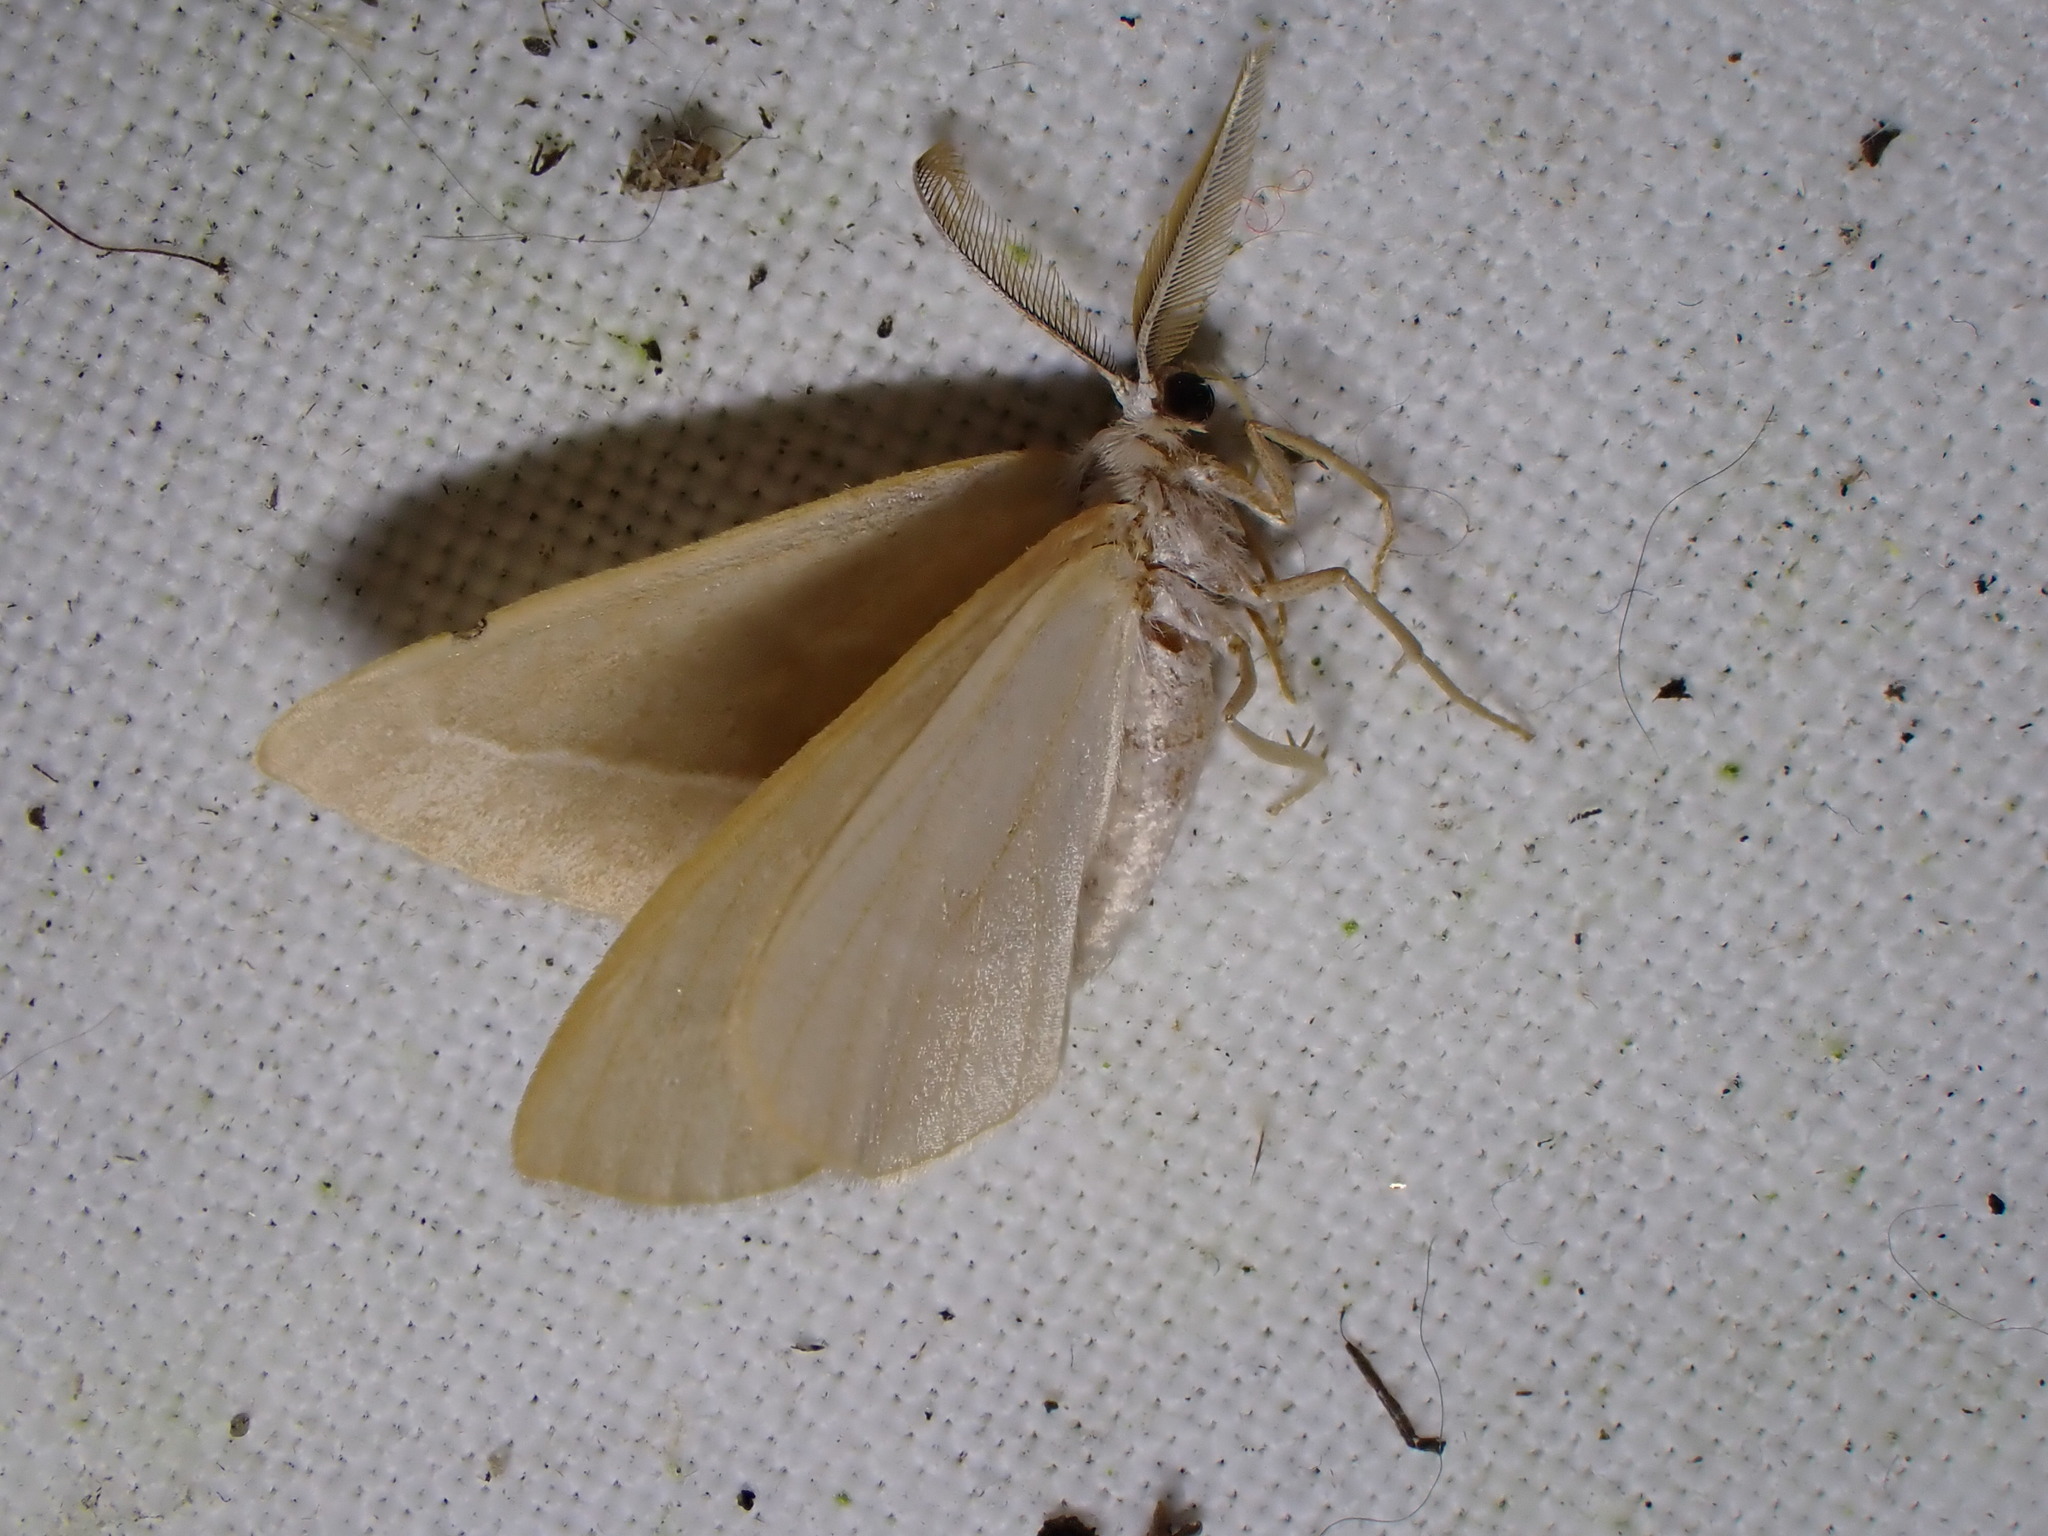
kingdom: Animalia
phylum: Arthropoda
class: Insecta
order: Lepidoptera
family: Geometridae
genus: Hylaea
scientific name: Hylaea fasciaria
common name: Barred red
